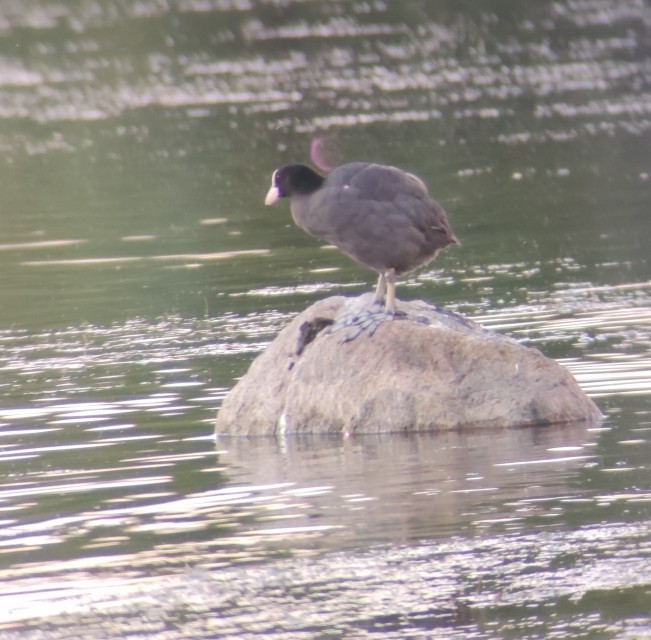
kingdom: Animalia
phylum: Chordata
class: Aves
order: Gruiformes
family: Rallidae
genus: Fulica
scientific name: Fulica atra
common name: Eurasian coot
